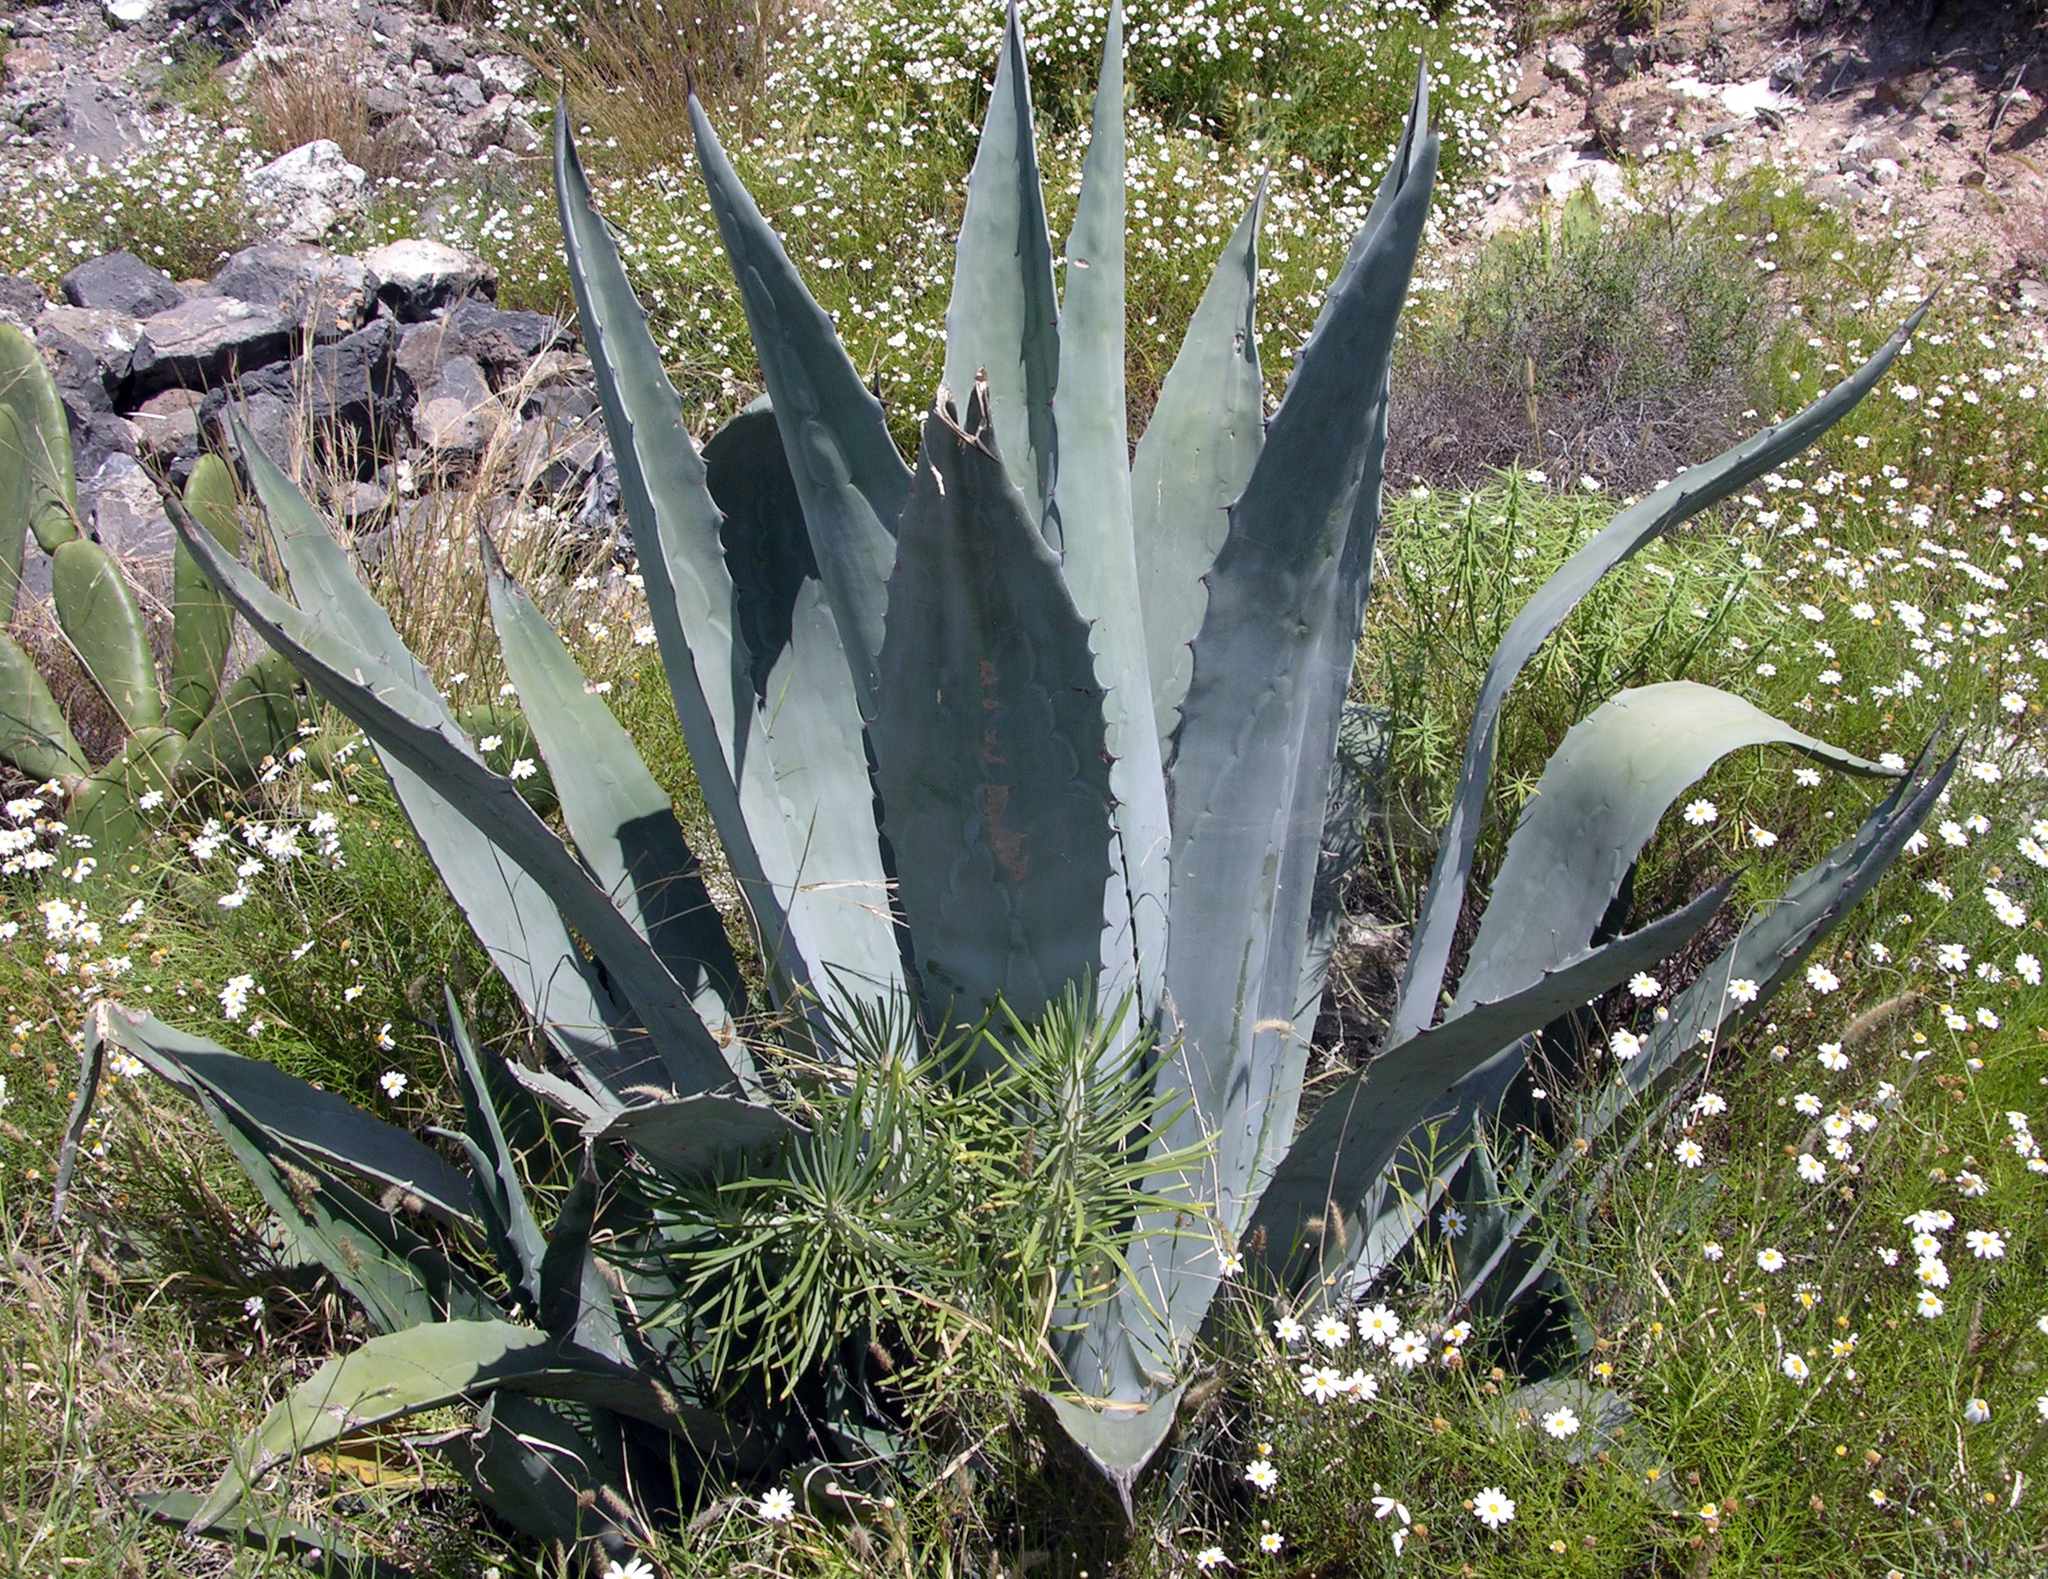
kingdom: Plantae
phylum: Tracheophyta
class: Liliopsida
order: Asparagales
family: Asparagaceae
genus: Agave
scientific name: Agave americana
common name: Centuryplant
